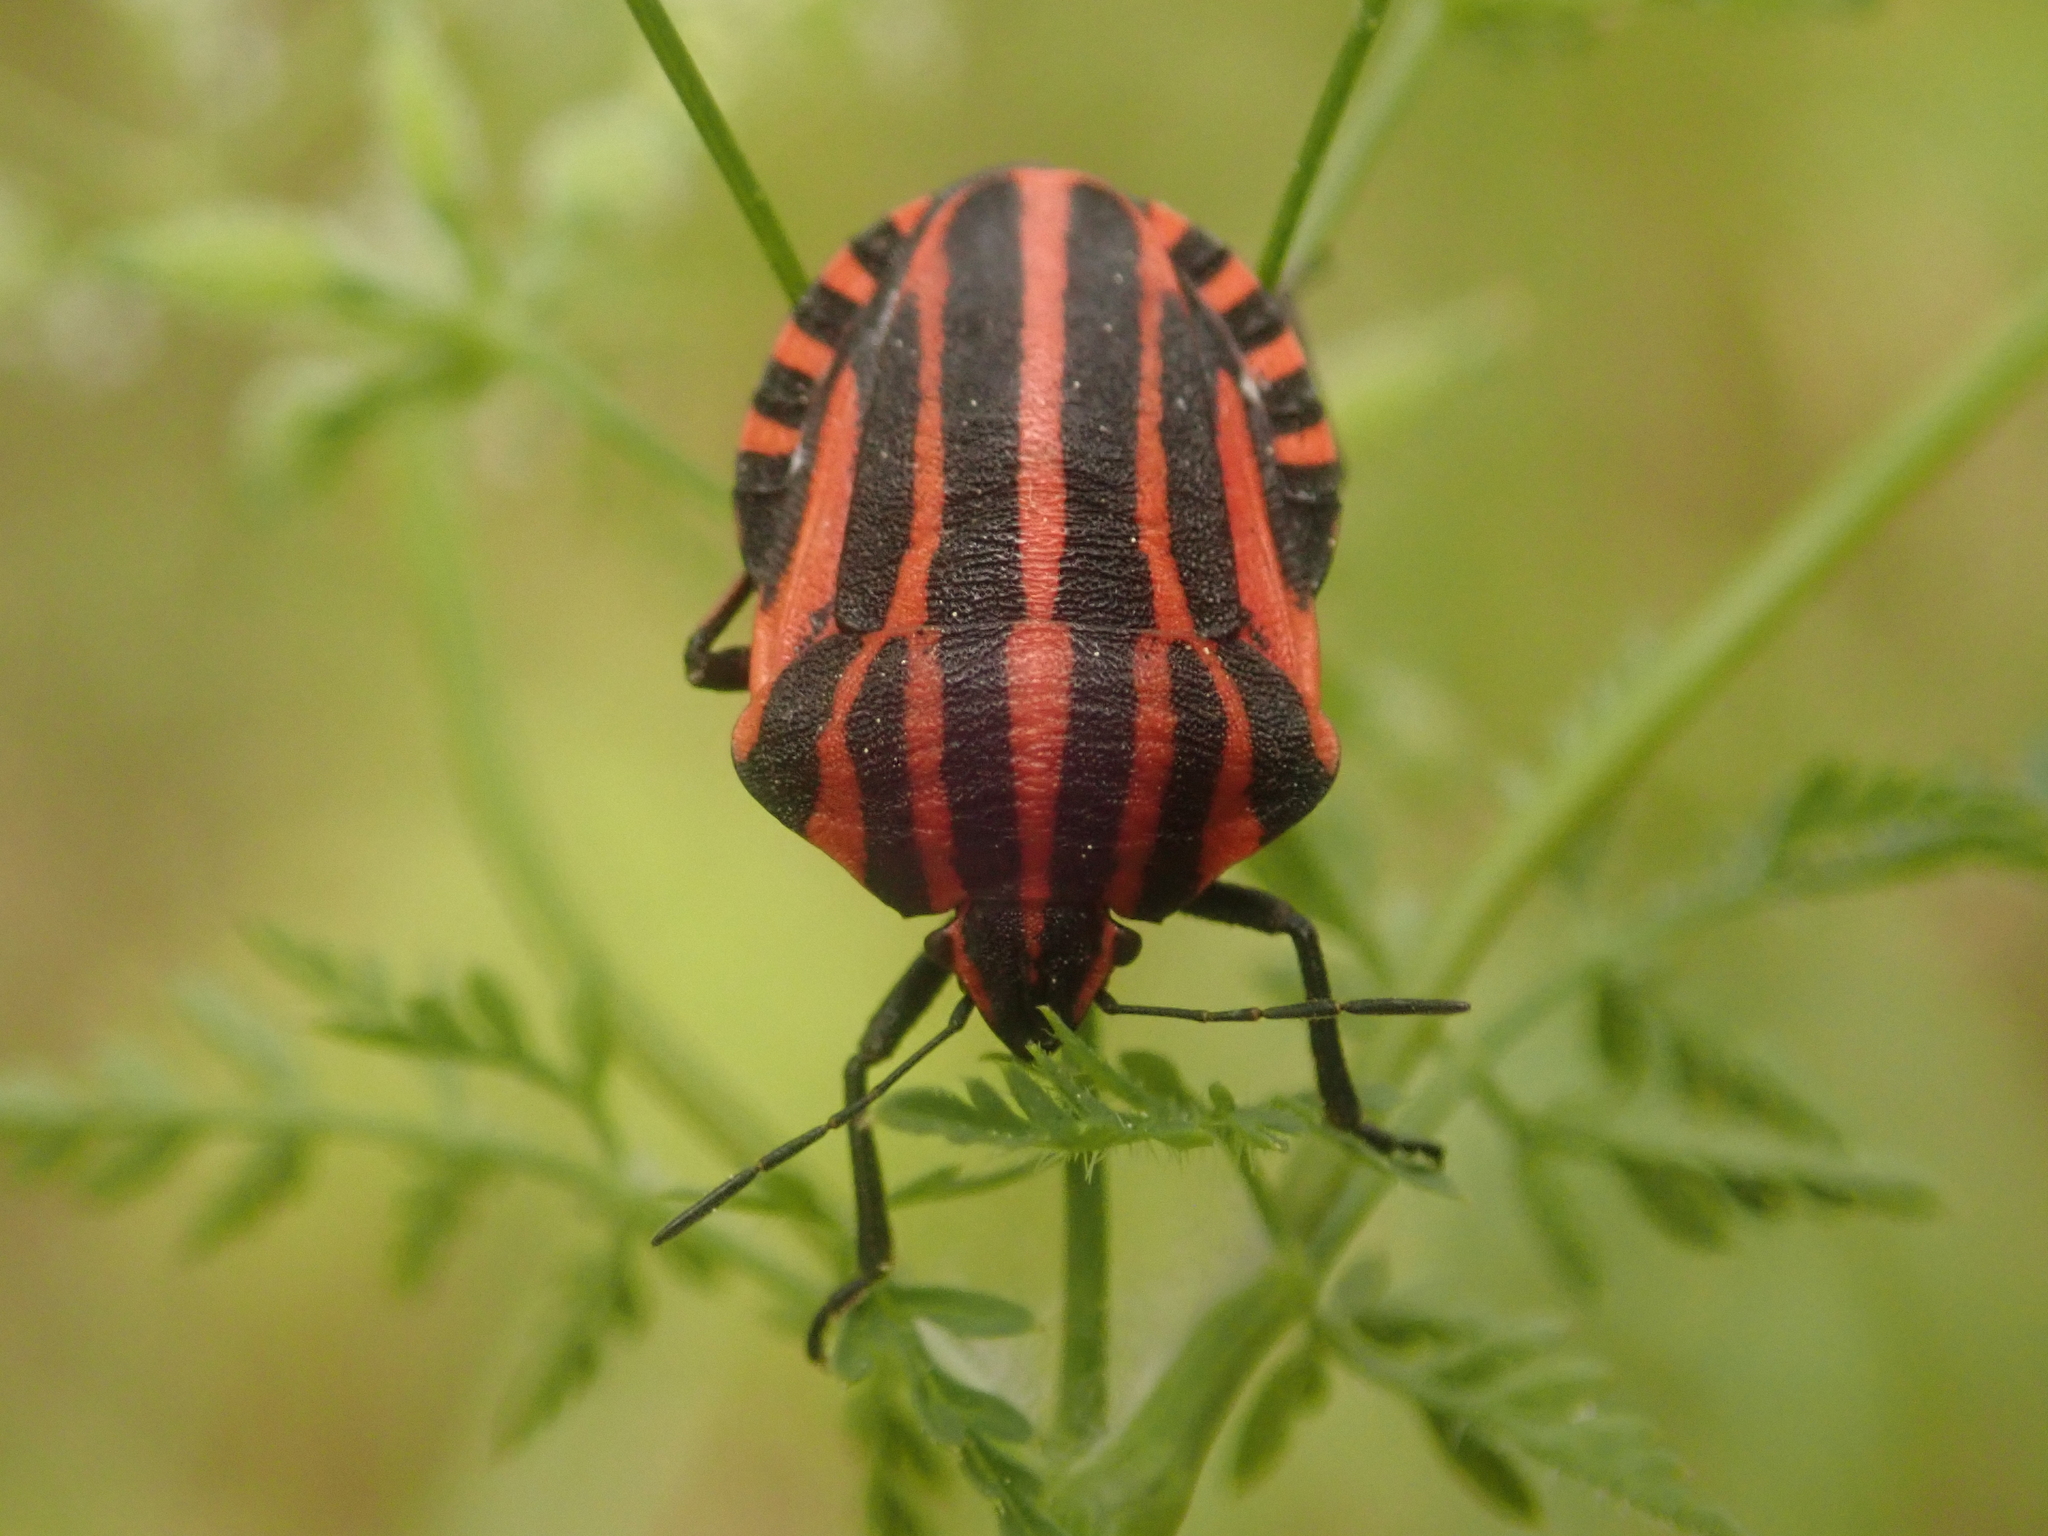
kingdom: Animalia
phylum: Arthropoda
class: Insecta
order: Hemiptera
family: Pentatomidae
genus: Graphosoma
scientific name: Graphosoma italicum
